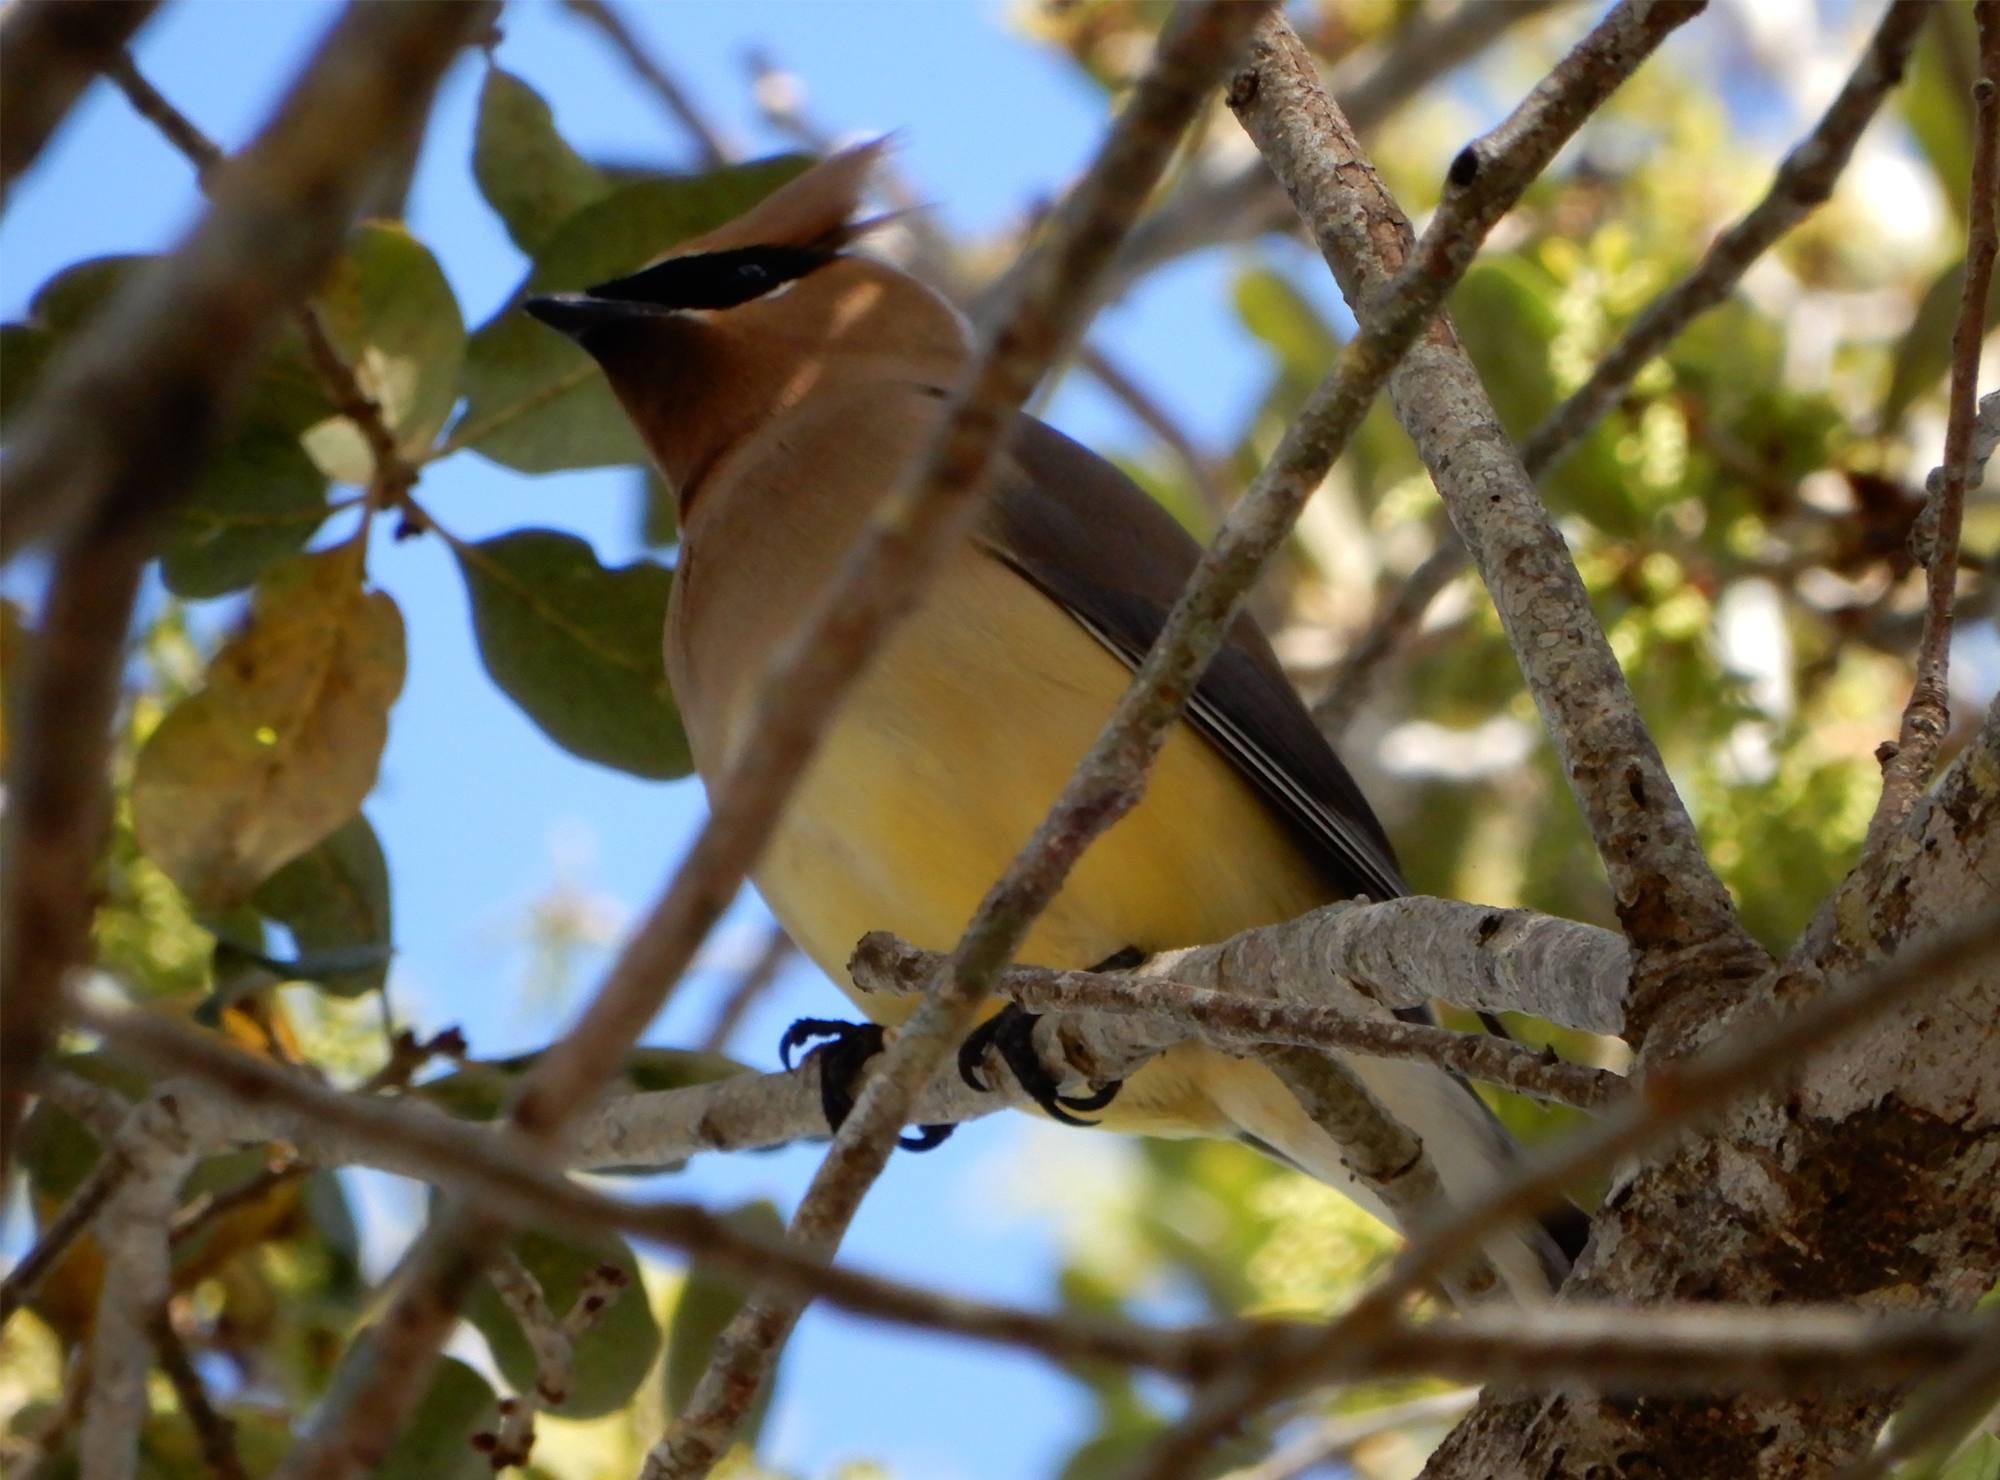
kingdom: Animalia
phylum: Chordata
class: Aves
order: Passeriformes
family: Bombycillidae
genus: Bombycilla
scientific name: Bombycilla cedrorum
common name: Cedar waxwing
